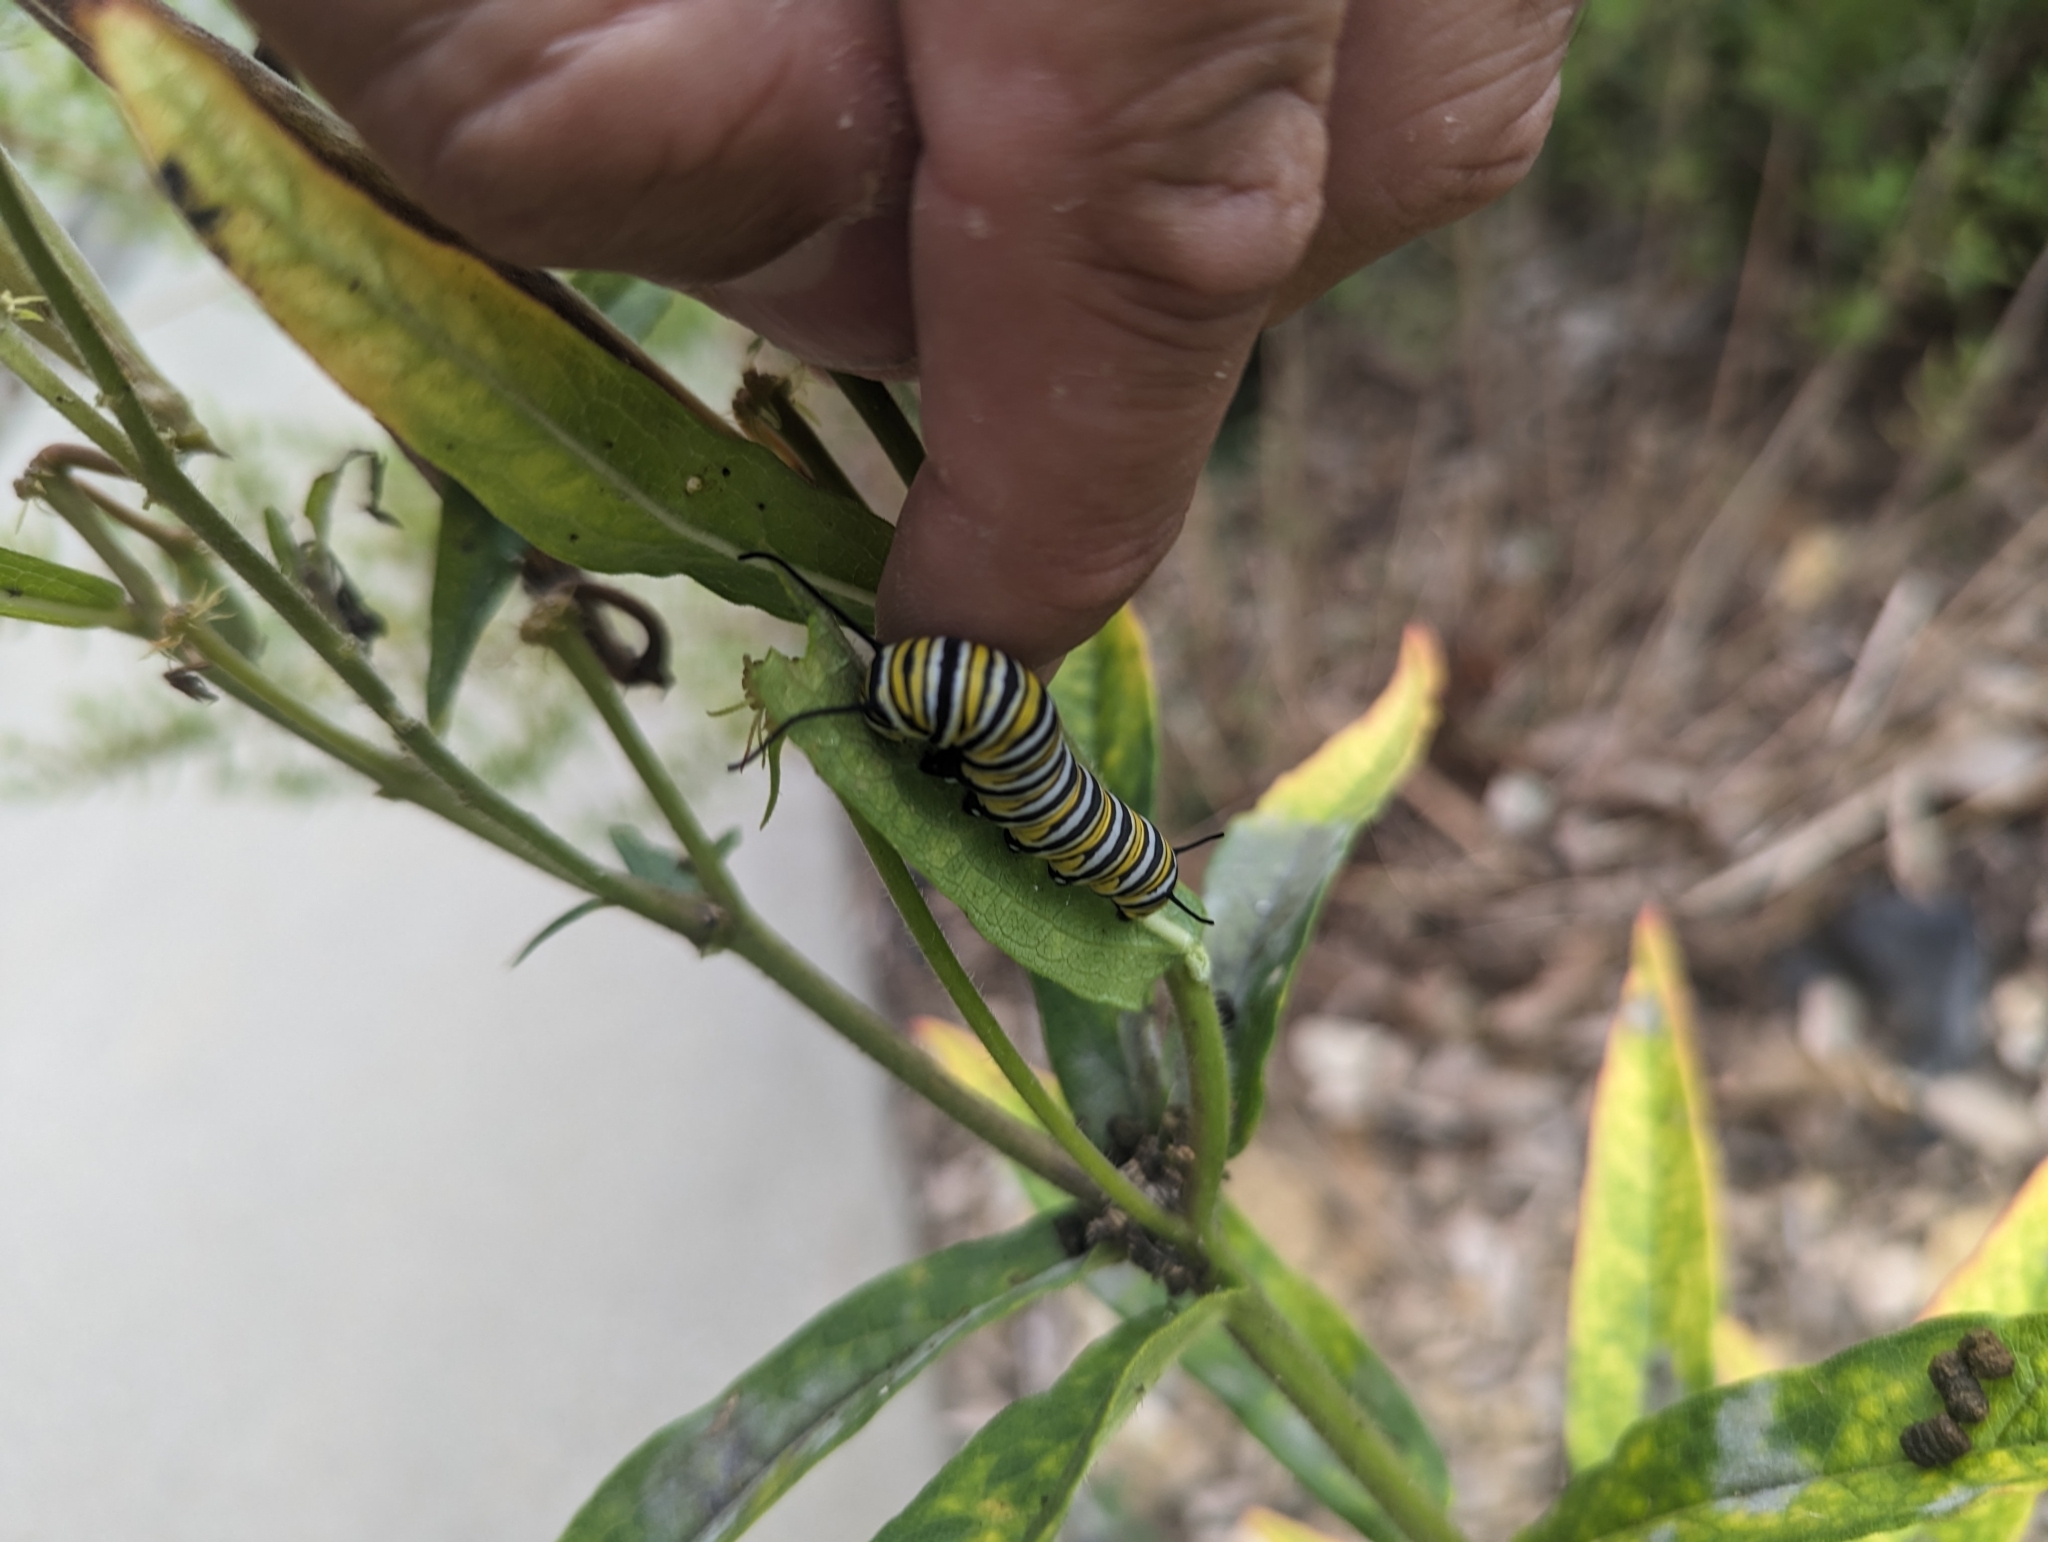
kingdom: Animalia
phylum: Arthropoda
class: Insecta
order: Lepidoptera
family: Nymphalidae
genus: Danaus
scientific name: Danaus plexippus
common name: Monarch
